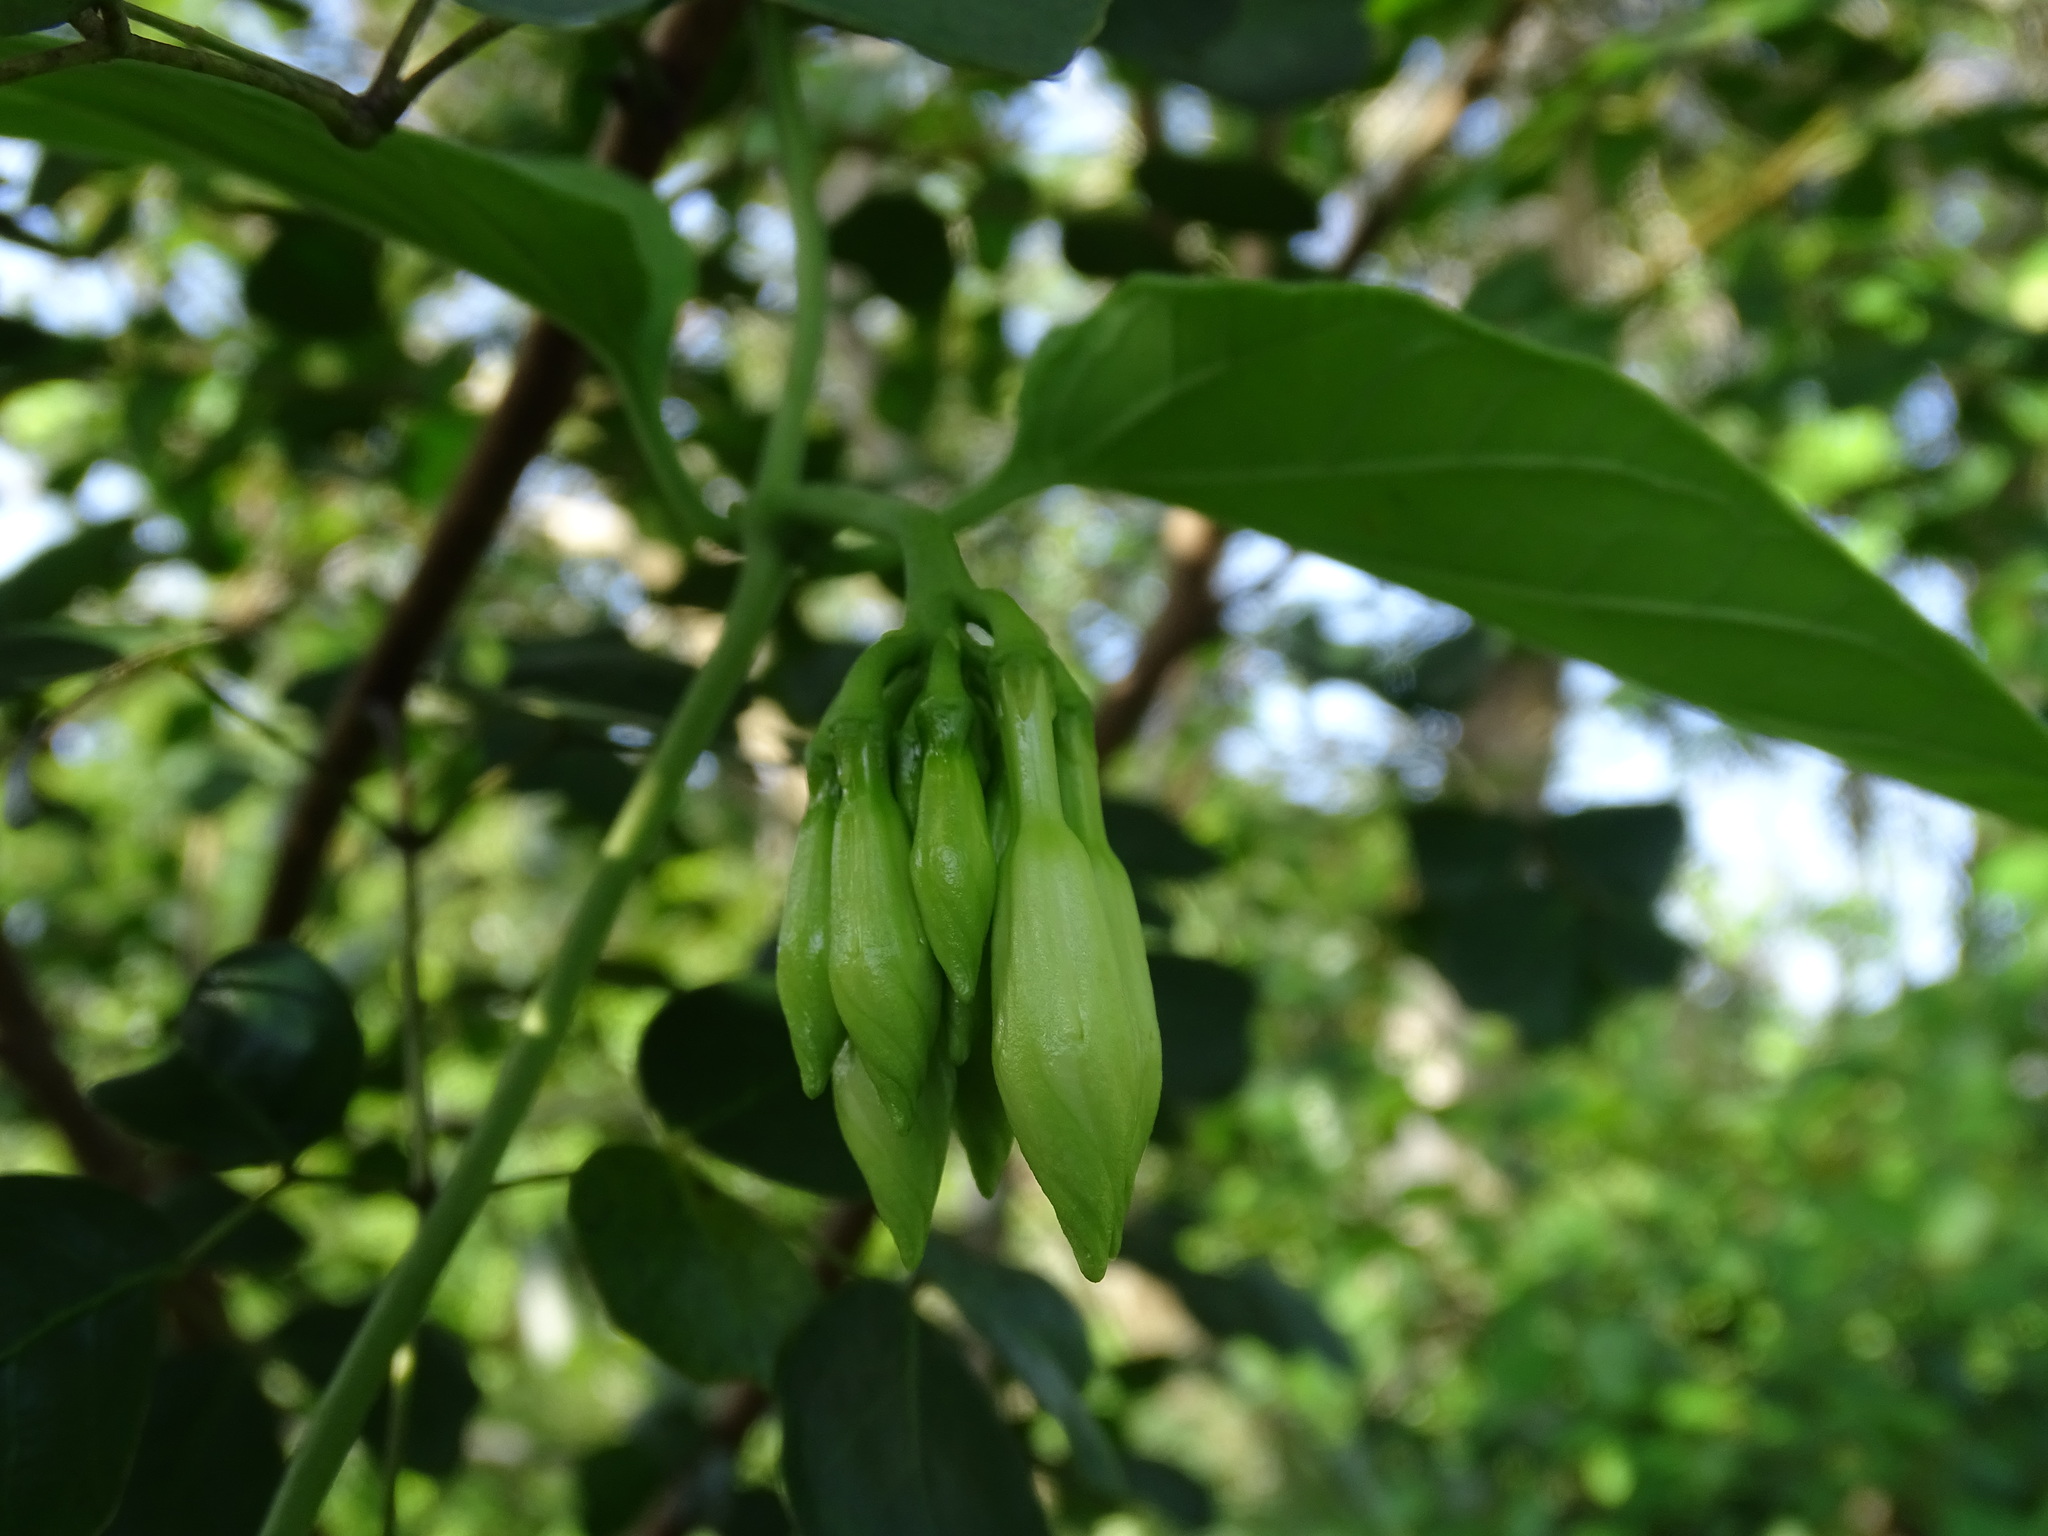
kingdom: Plantae
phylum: Tracheophyta
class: Magnoliopsida
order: Gentianales
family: Apocynaceae
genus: Echites
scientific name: Echites panduratus
